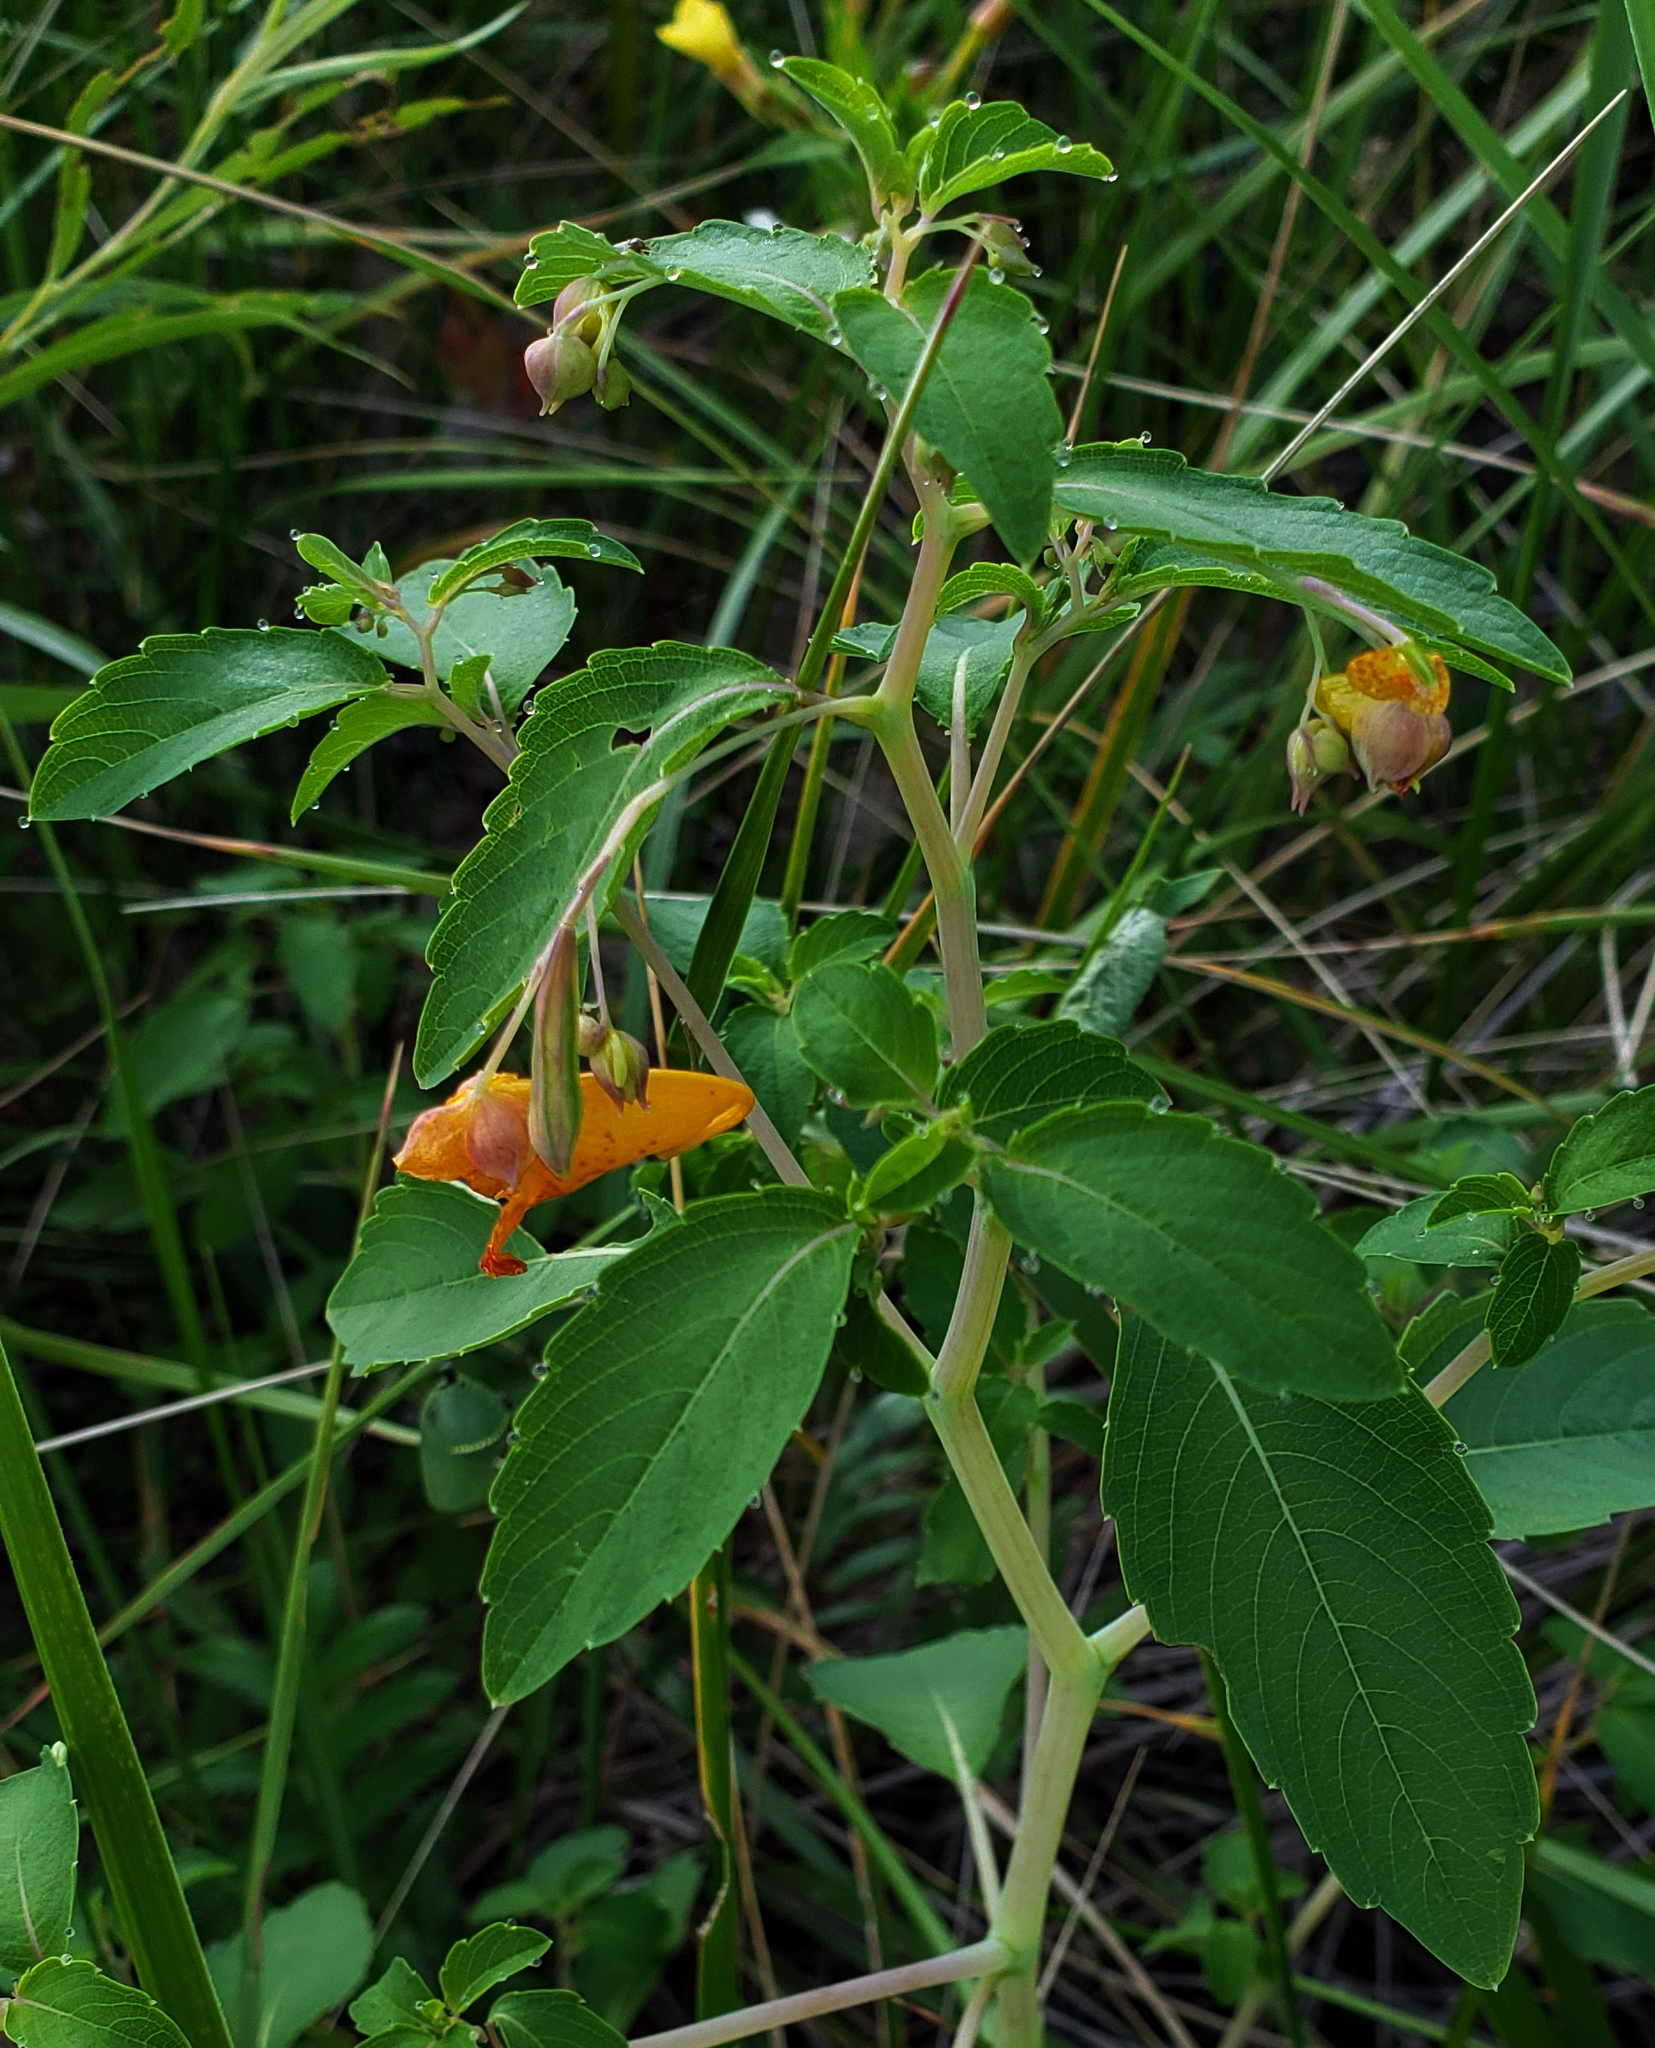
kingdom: Plantae
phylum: Tracheophyta
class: Magnoliopsida
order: Ericales
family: Balsaminaceae
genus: Impatiens
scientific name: Impatiens capensis
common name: Orange balsam
